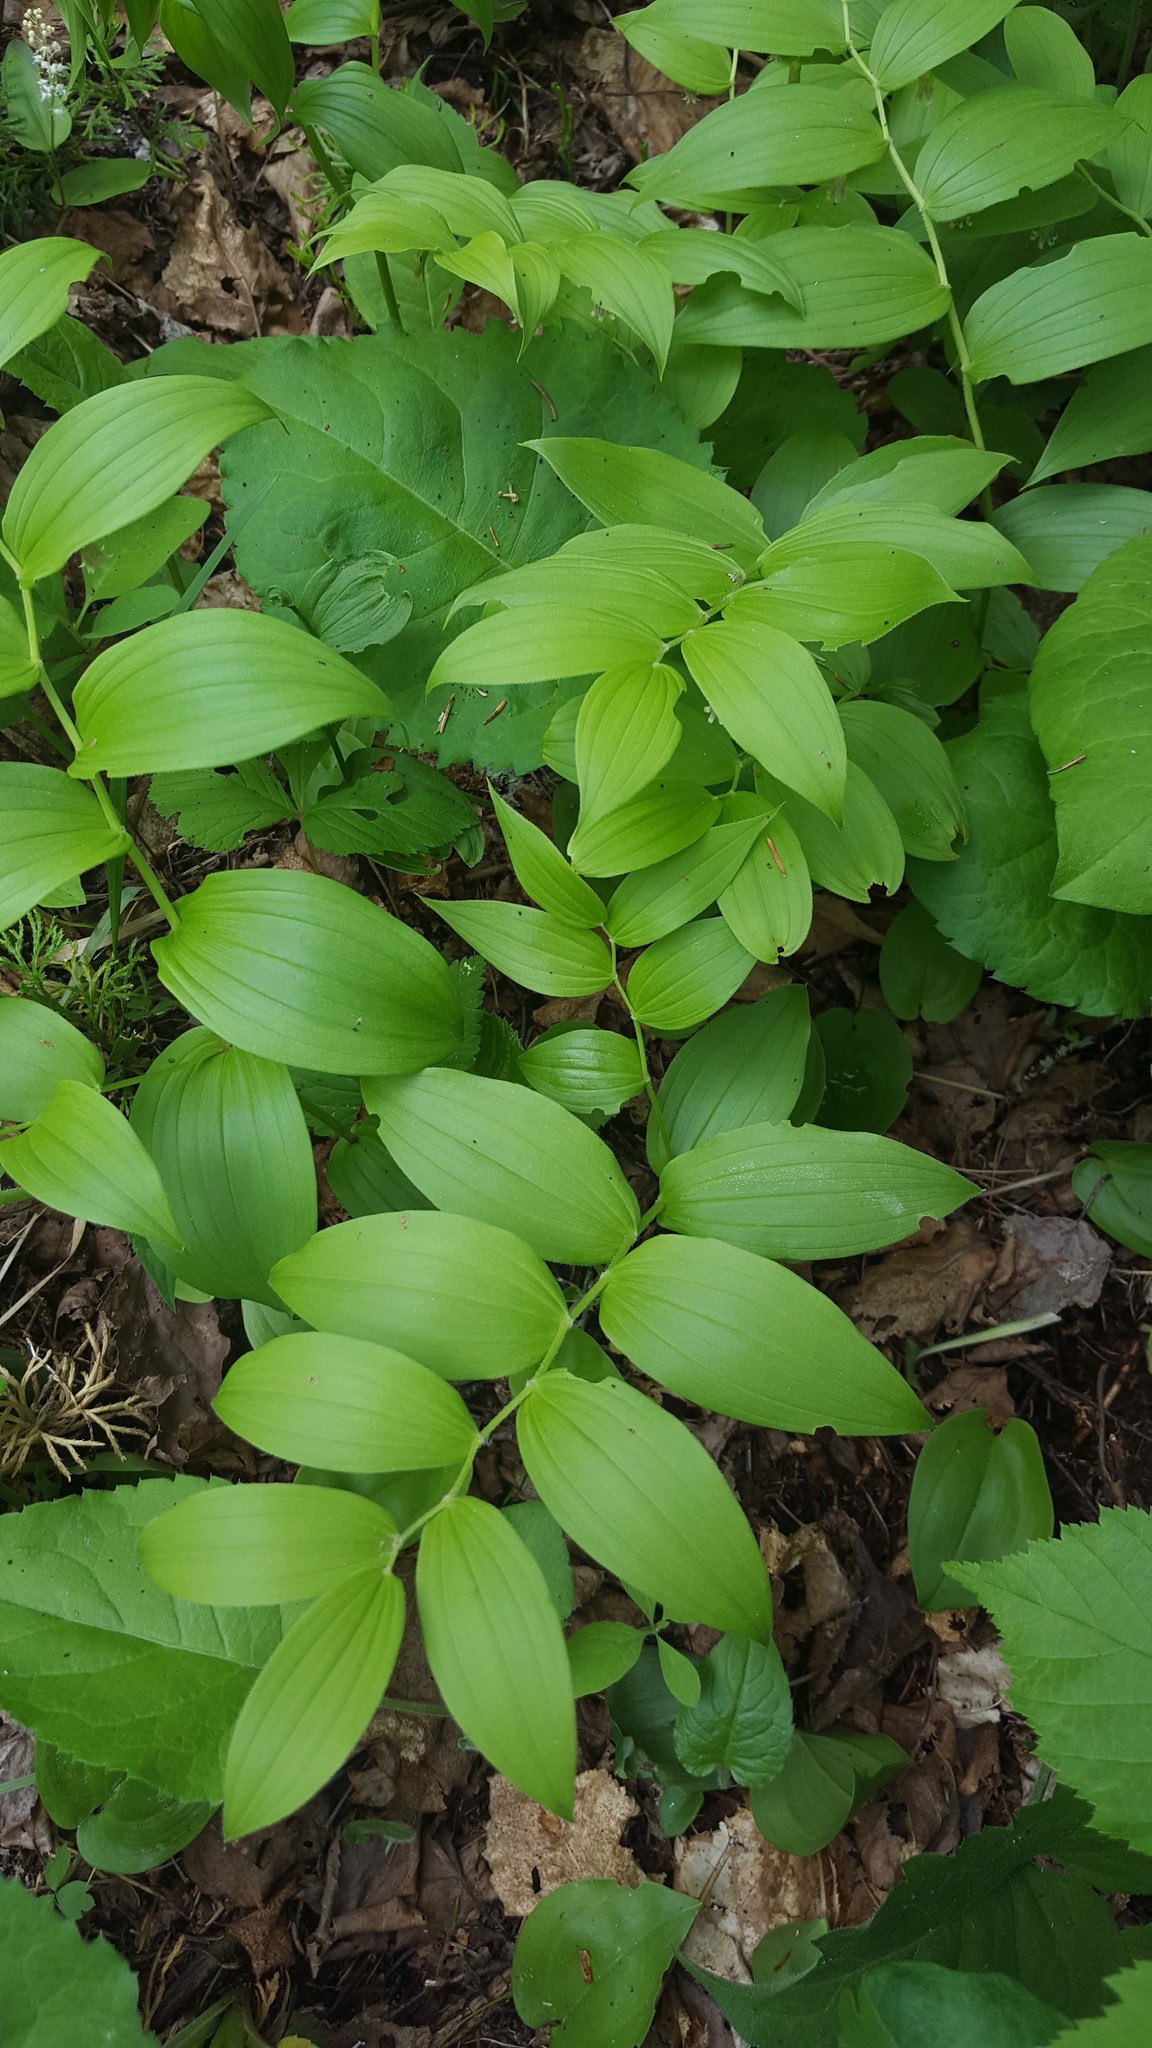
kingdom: Plantae
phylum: Tracheophyta
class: Liliopsida
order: Liliales
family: Liliaceae
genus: Streptopus
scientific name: Streptopus lanceolatus
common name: Rose mandarin
